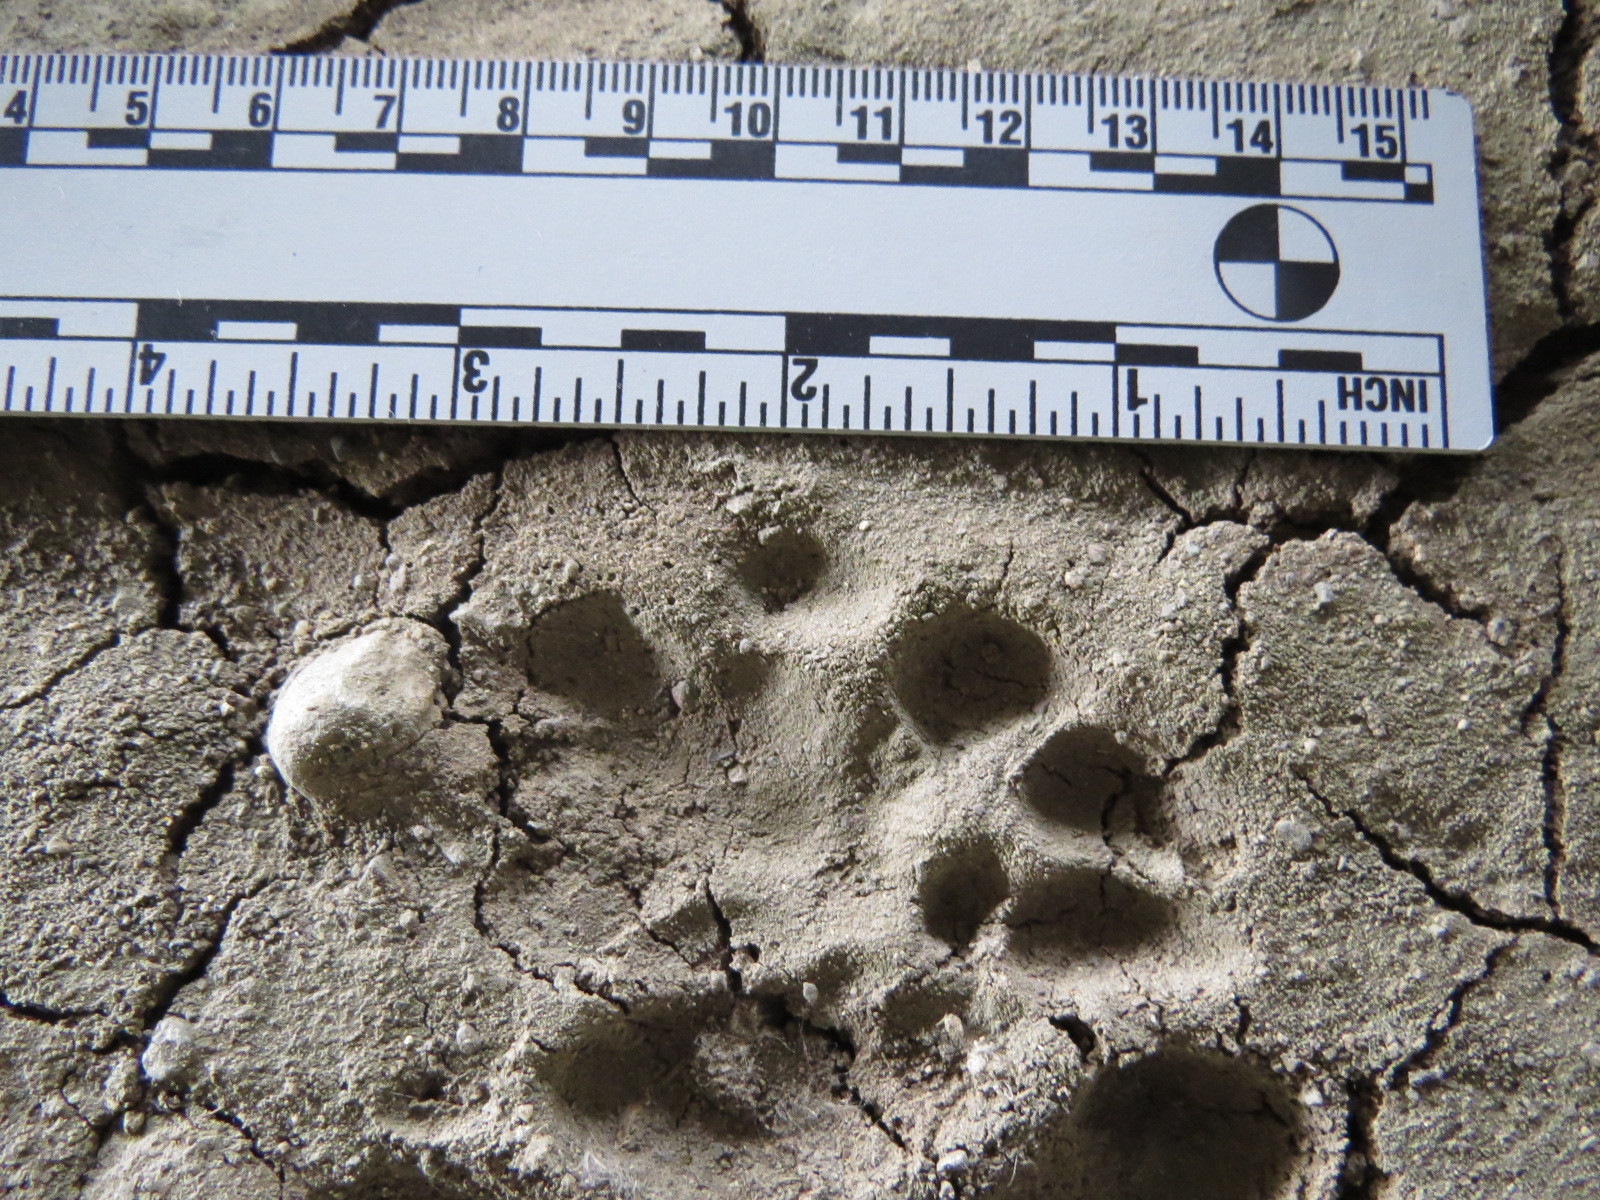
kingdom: Animalia
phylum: Chordata
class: Mammalia
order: Carnivora
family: Felidae
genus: Lynx
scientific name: Lynx rufus
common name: Bobcat
